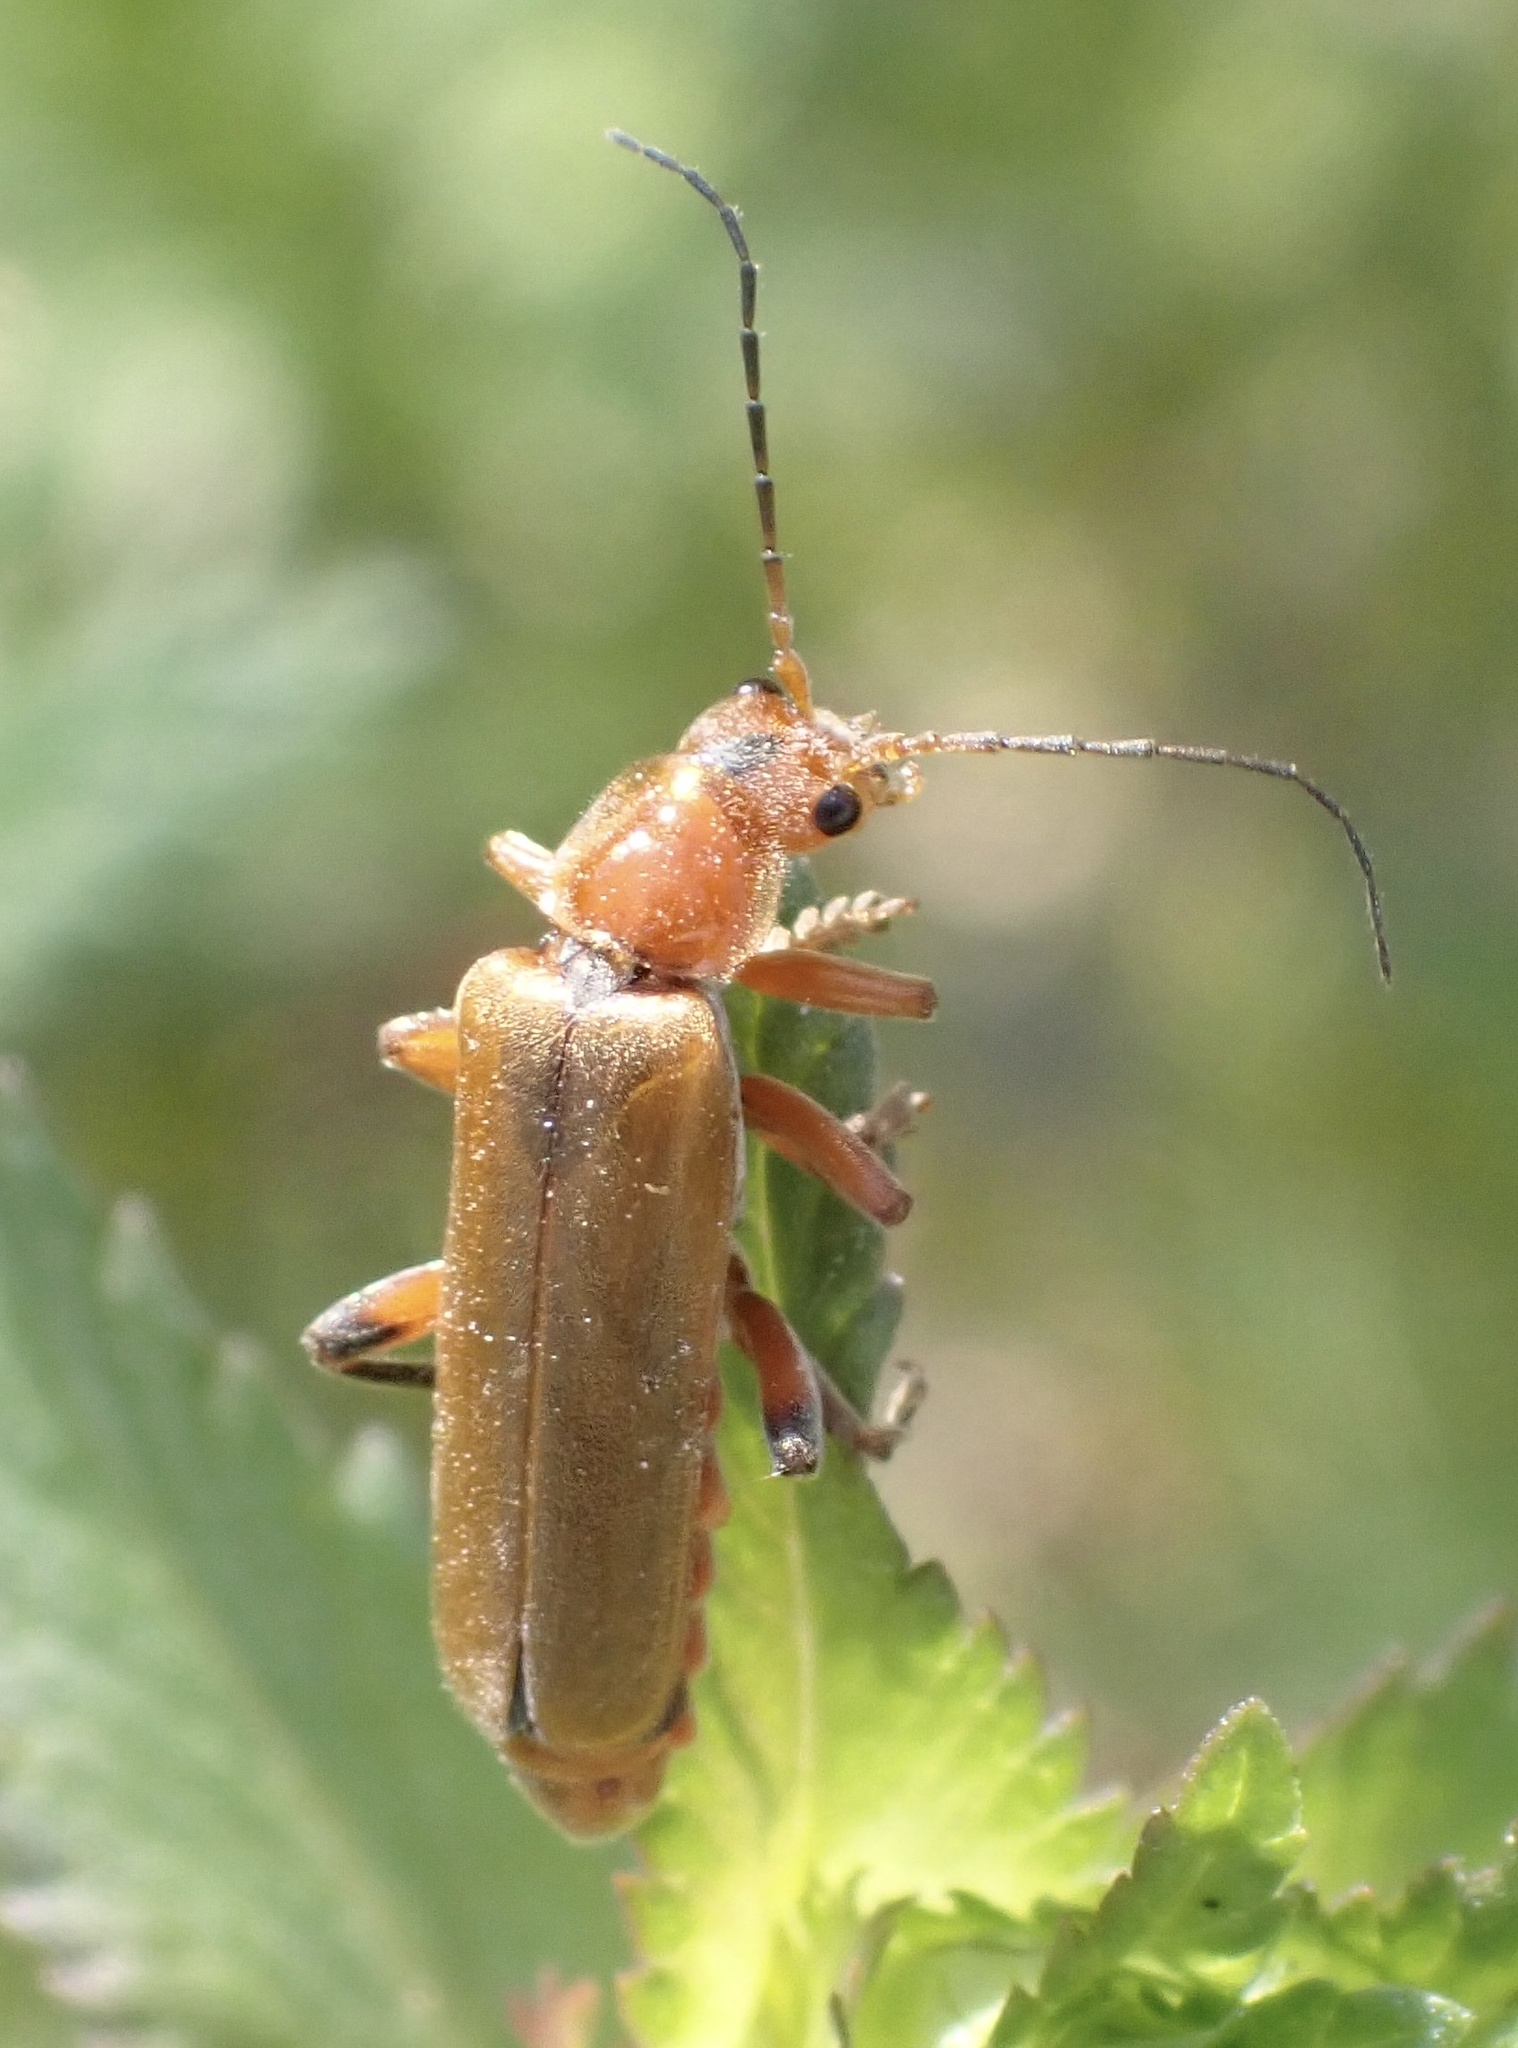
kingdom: Animalia
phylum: Arthropoda
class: Insecta
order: Coleoptera
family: Cantharidae
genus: Cantharis
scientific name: Cantharis livida
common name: Livid soldier beetle
